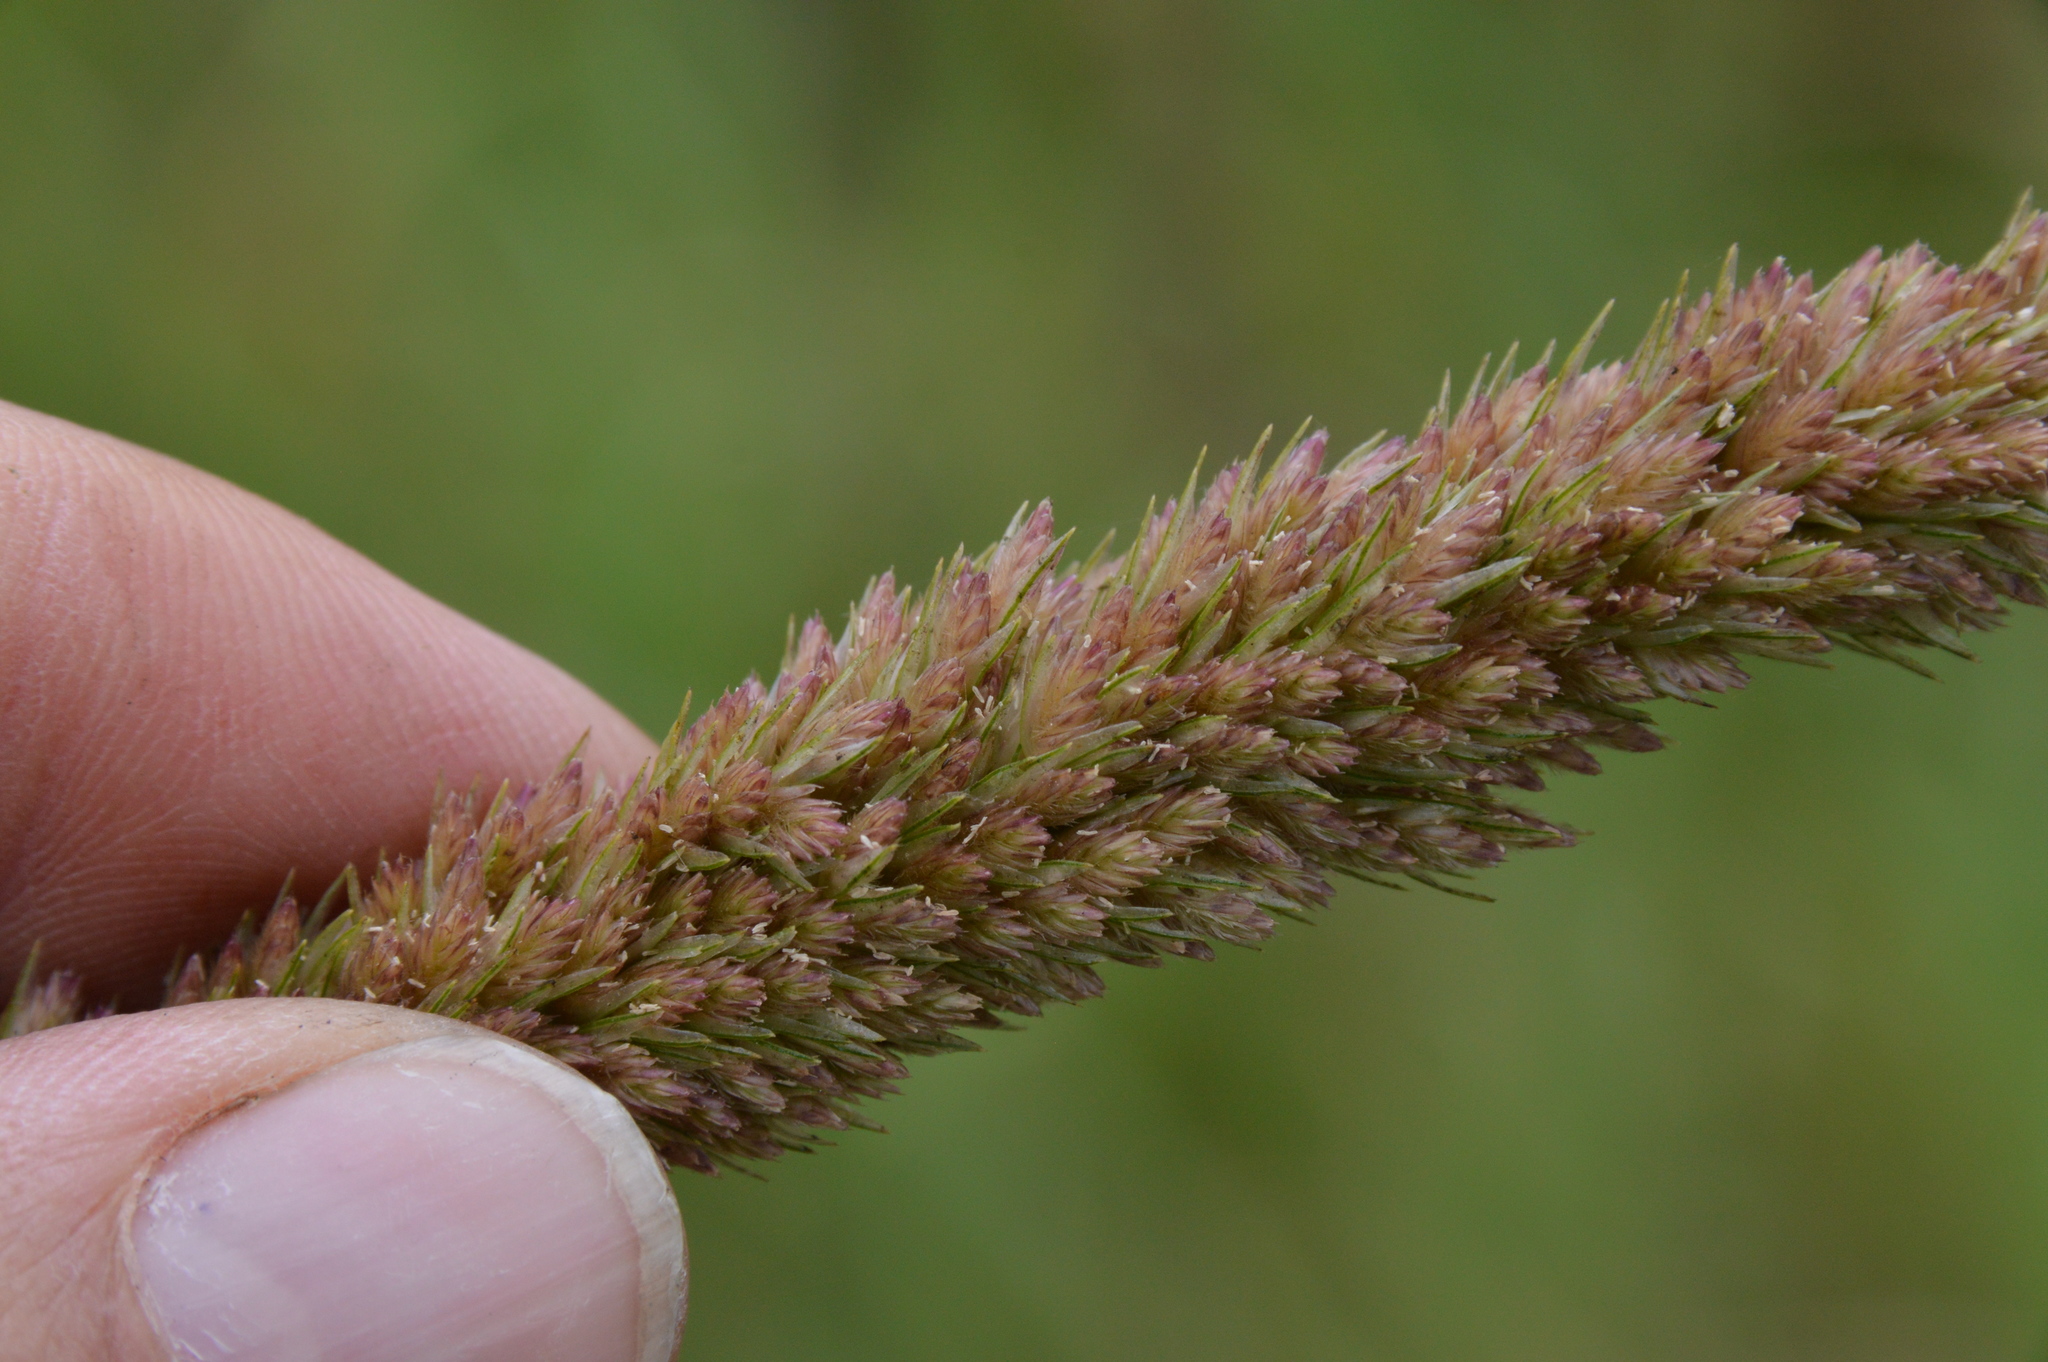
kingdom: Plantae
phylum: Tracheophyta
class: Liliopsida
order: Poales
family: Poaceae
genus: Tridens
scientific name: Tridens strictus
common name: Long-spike tridens
